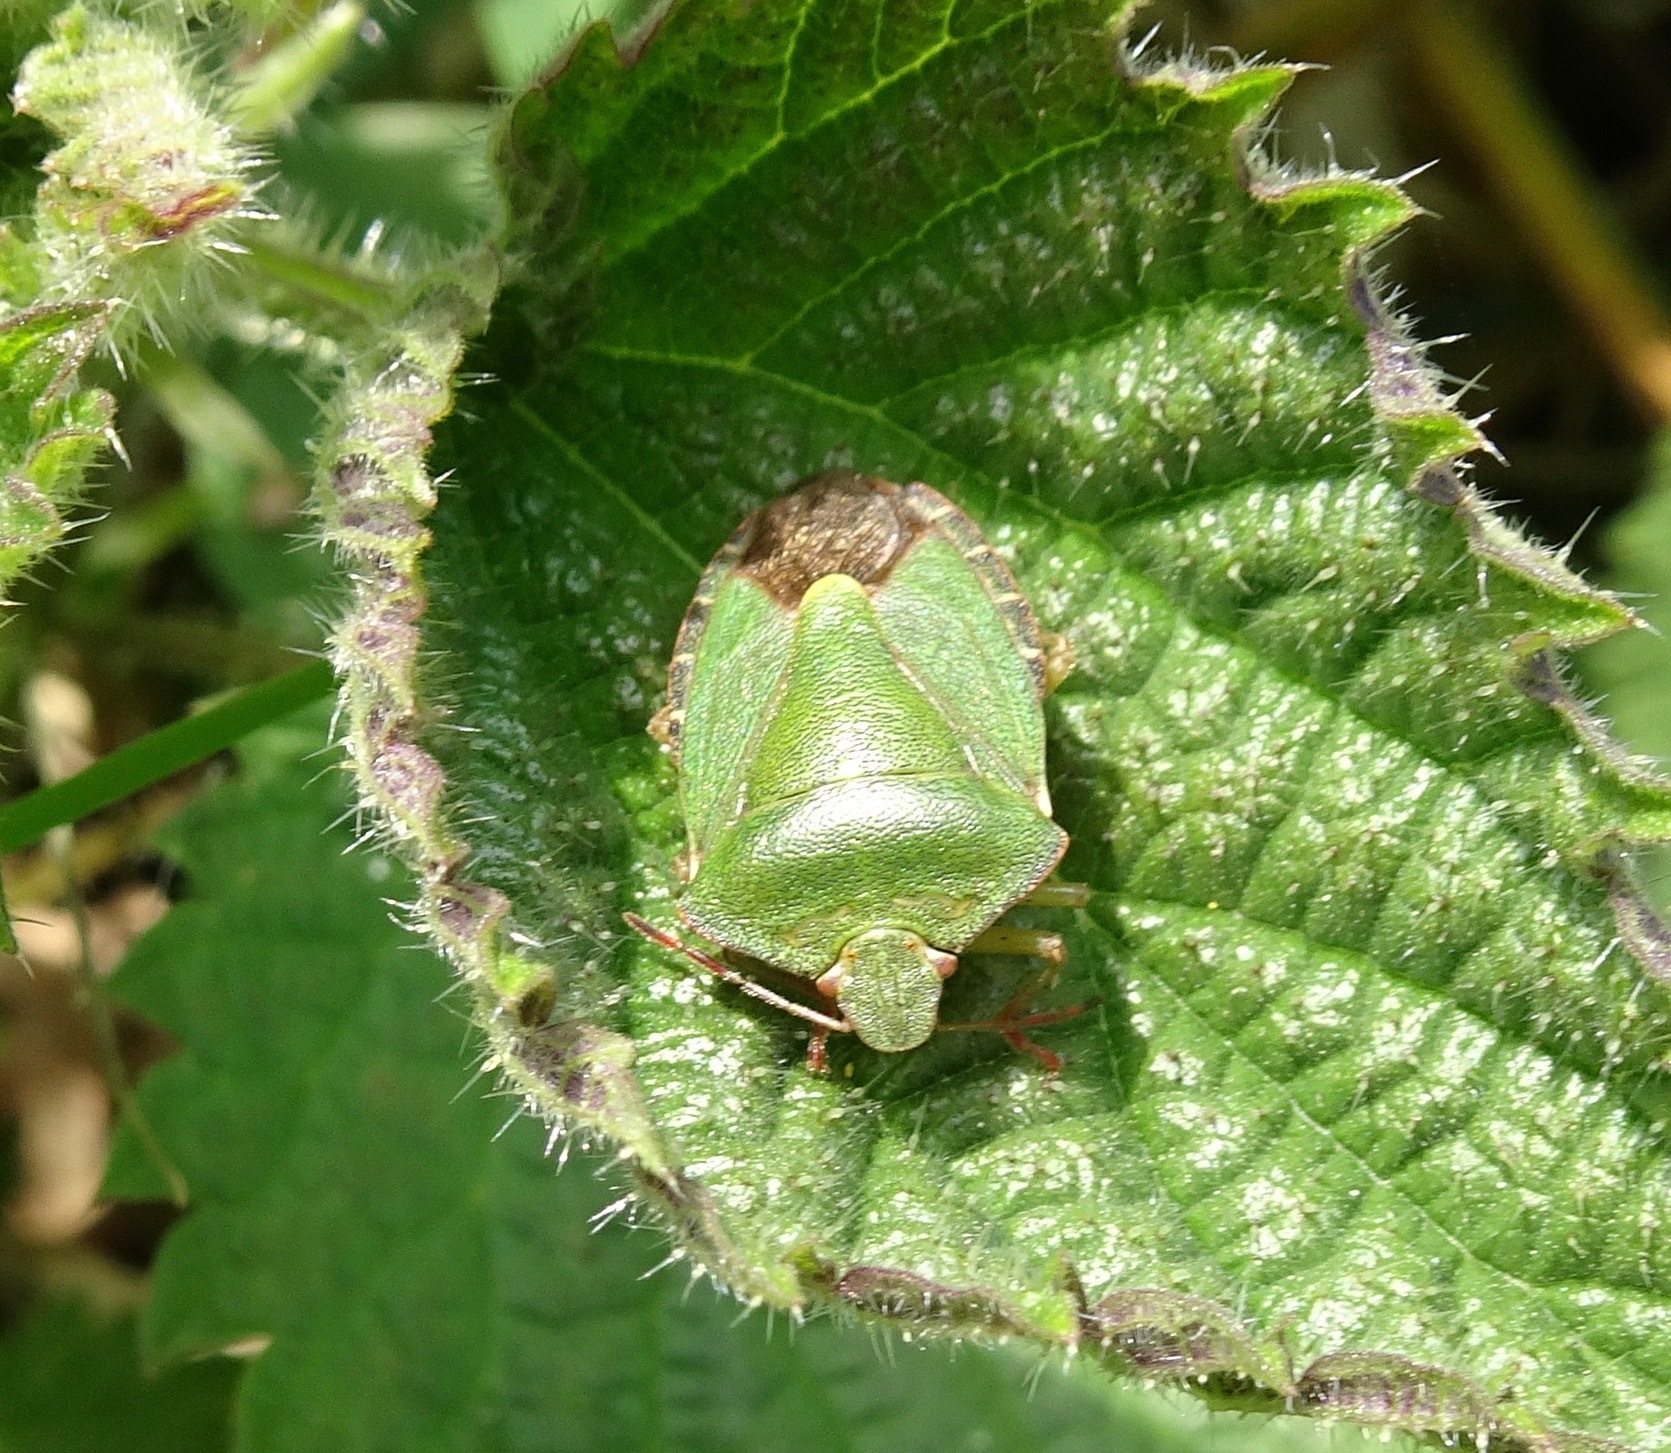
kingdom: Animalia
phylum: Arthropoda
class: Insecta
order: Hemiptera
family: Pentatomidae
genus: Palomena
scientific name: Palomena prasina
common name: Green shieldbug
